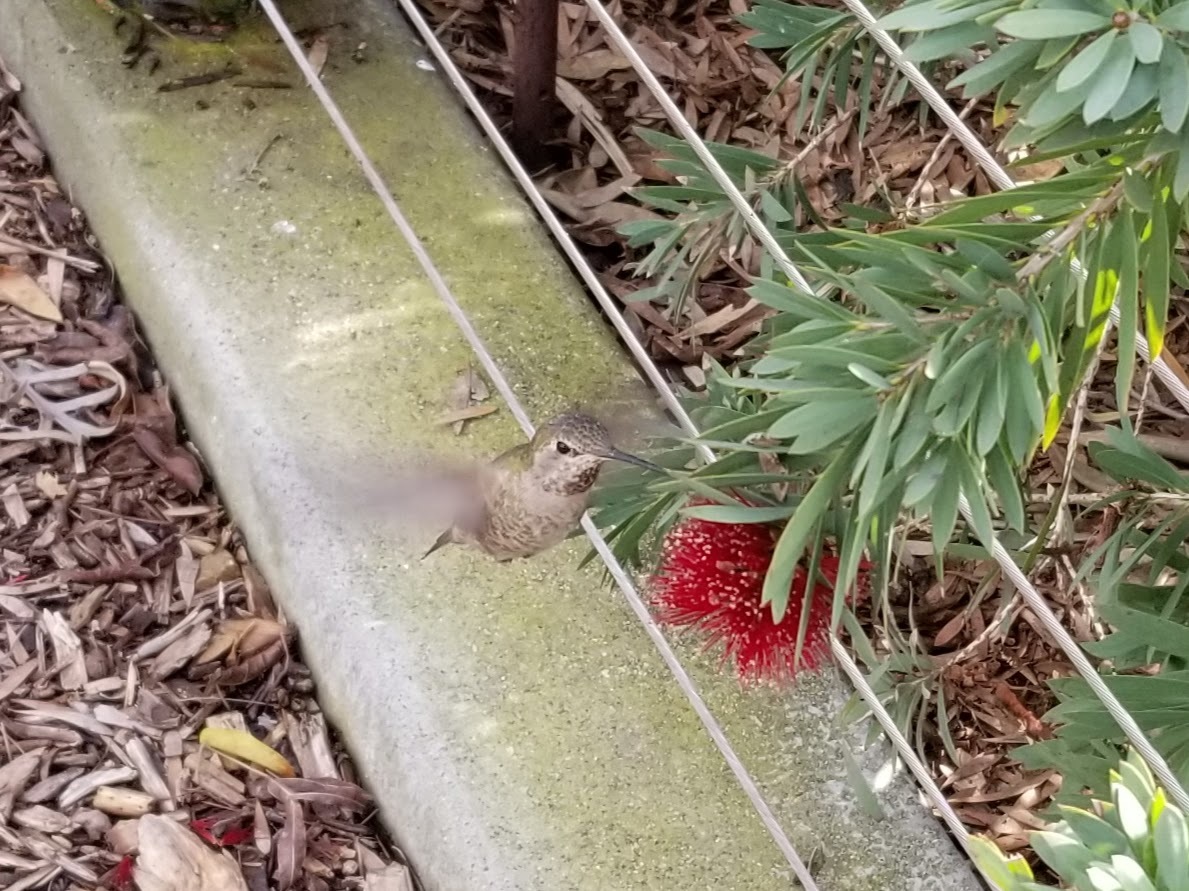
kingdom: Animalia
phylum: Chordata
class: Aves
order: Apodiformes
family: Trochilidae
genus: Calypte
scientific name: Calypte anna
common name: Anna's hummingbird
